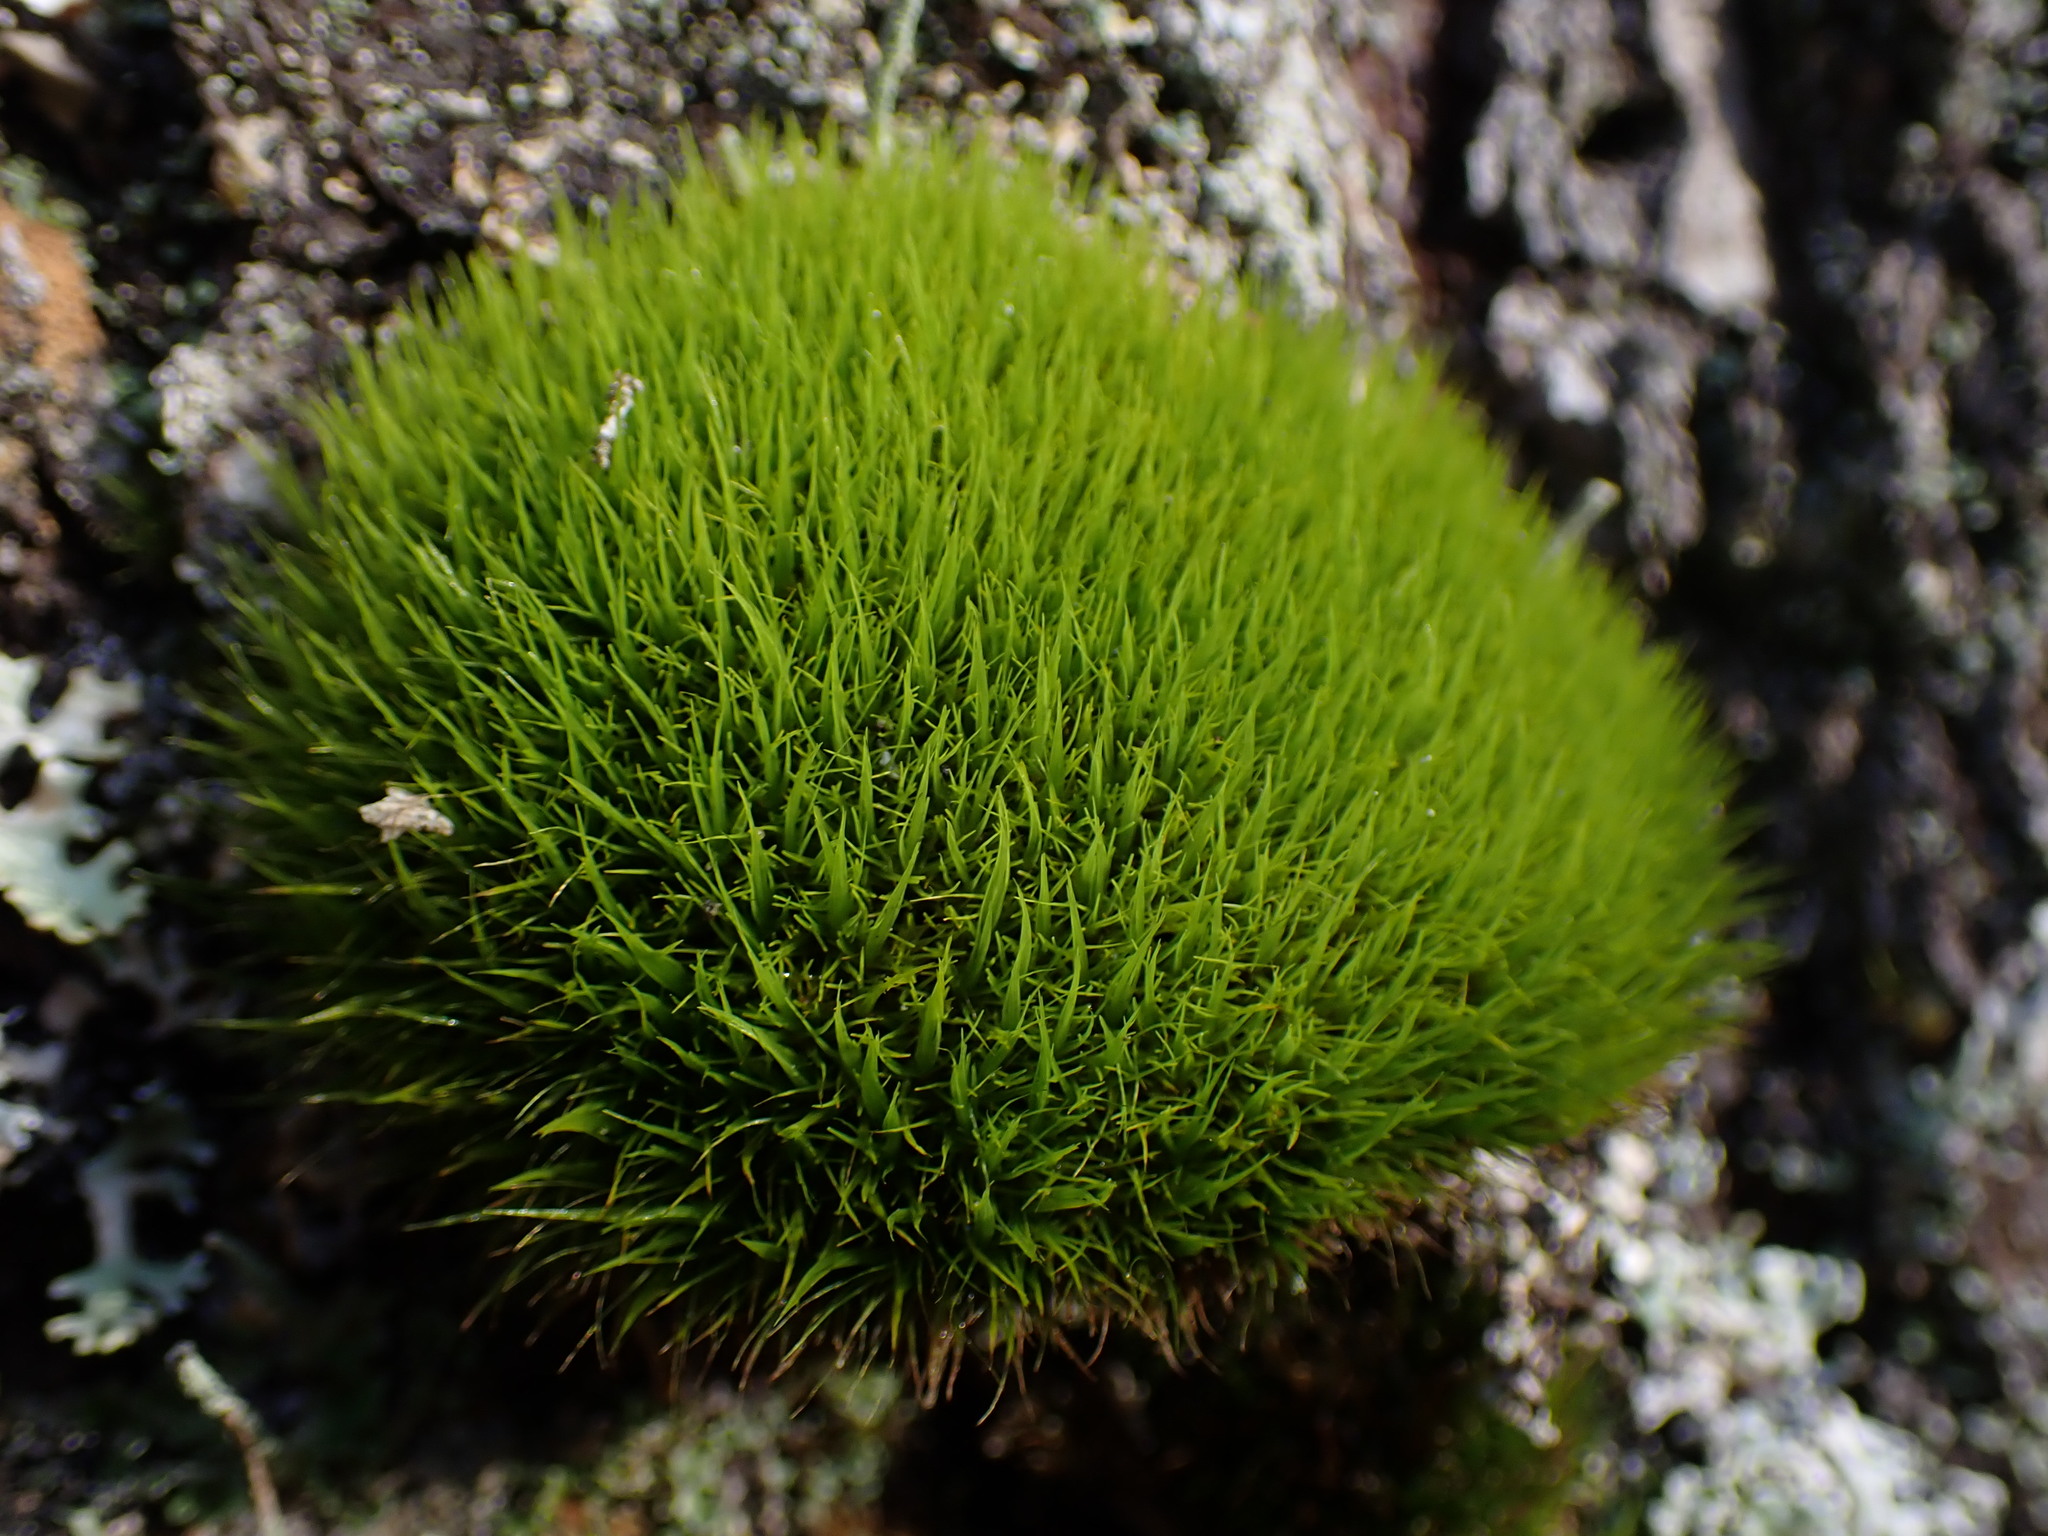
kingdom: Plantae
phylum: Bryophyta
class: Bryopsida
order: Dicranales
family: Dicranaceae
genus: Orthodicranum
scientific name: Orthodicranum tauricum
